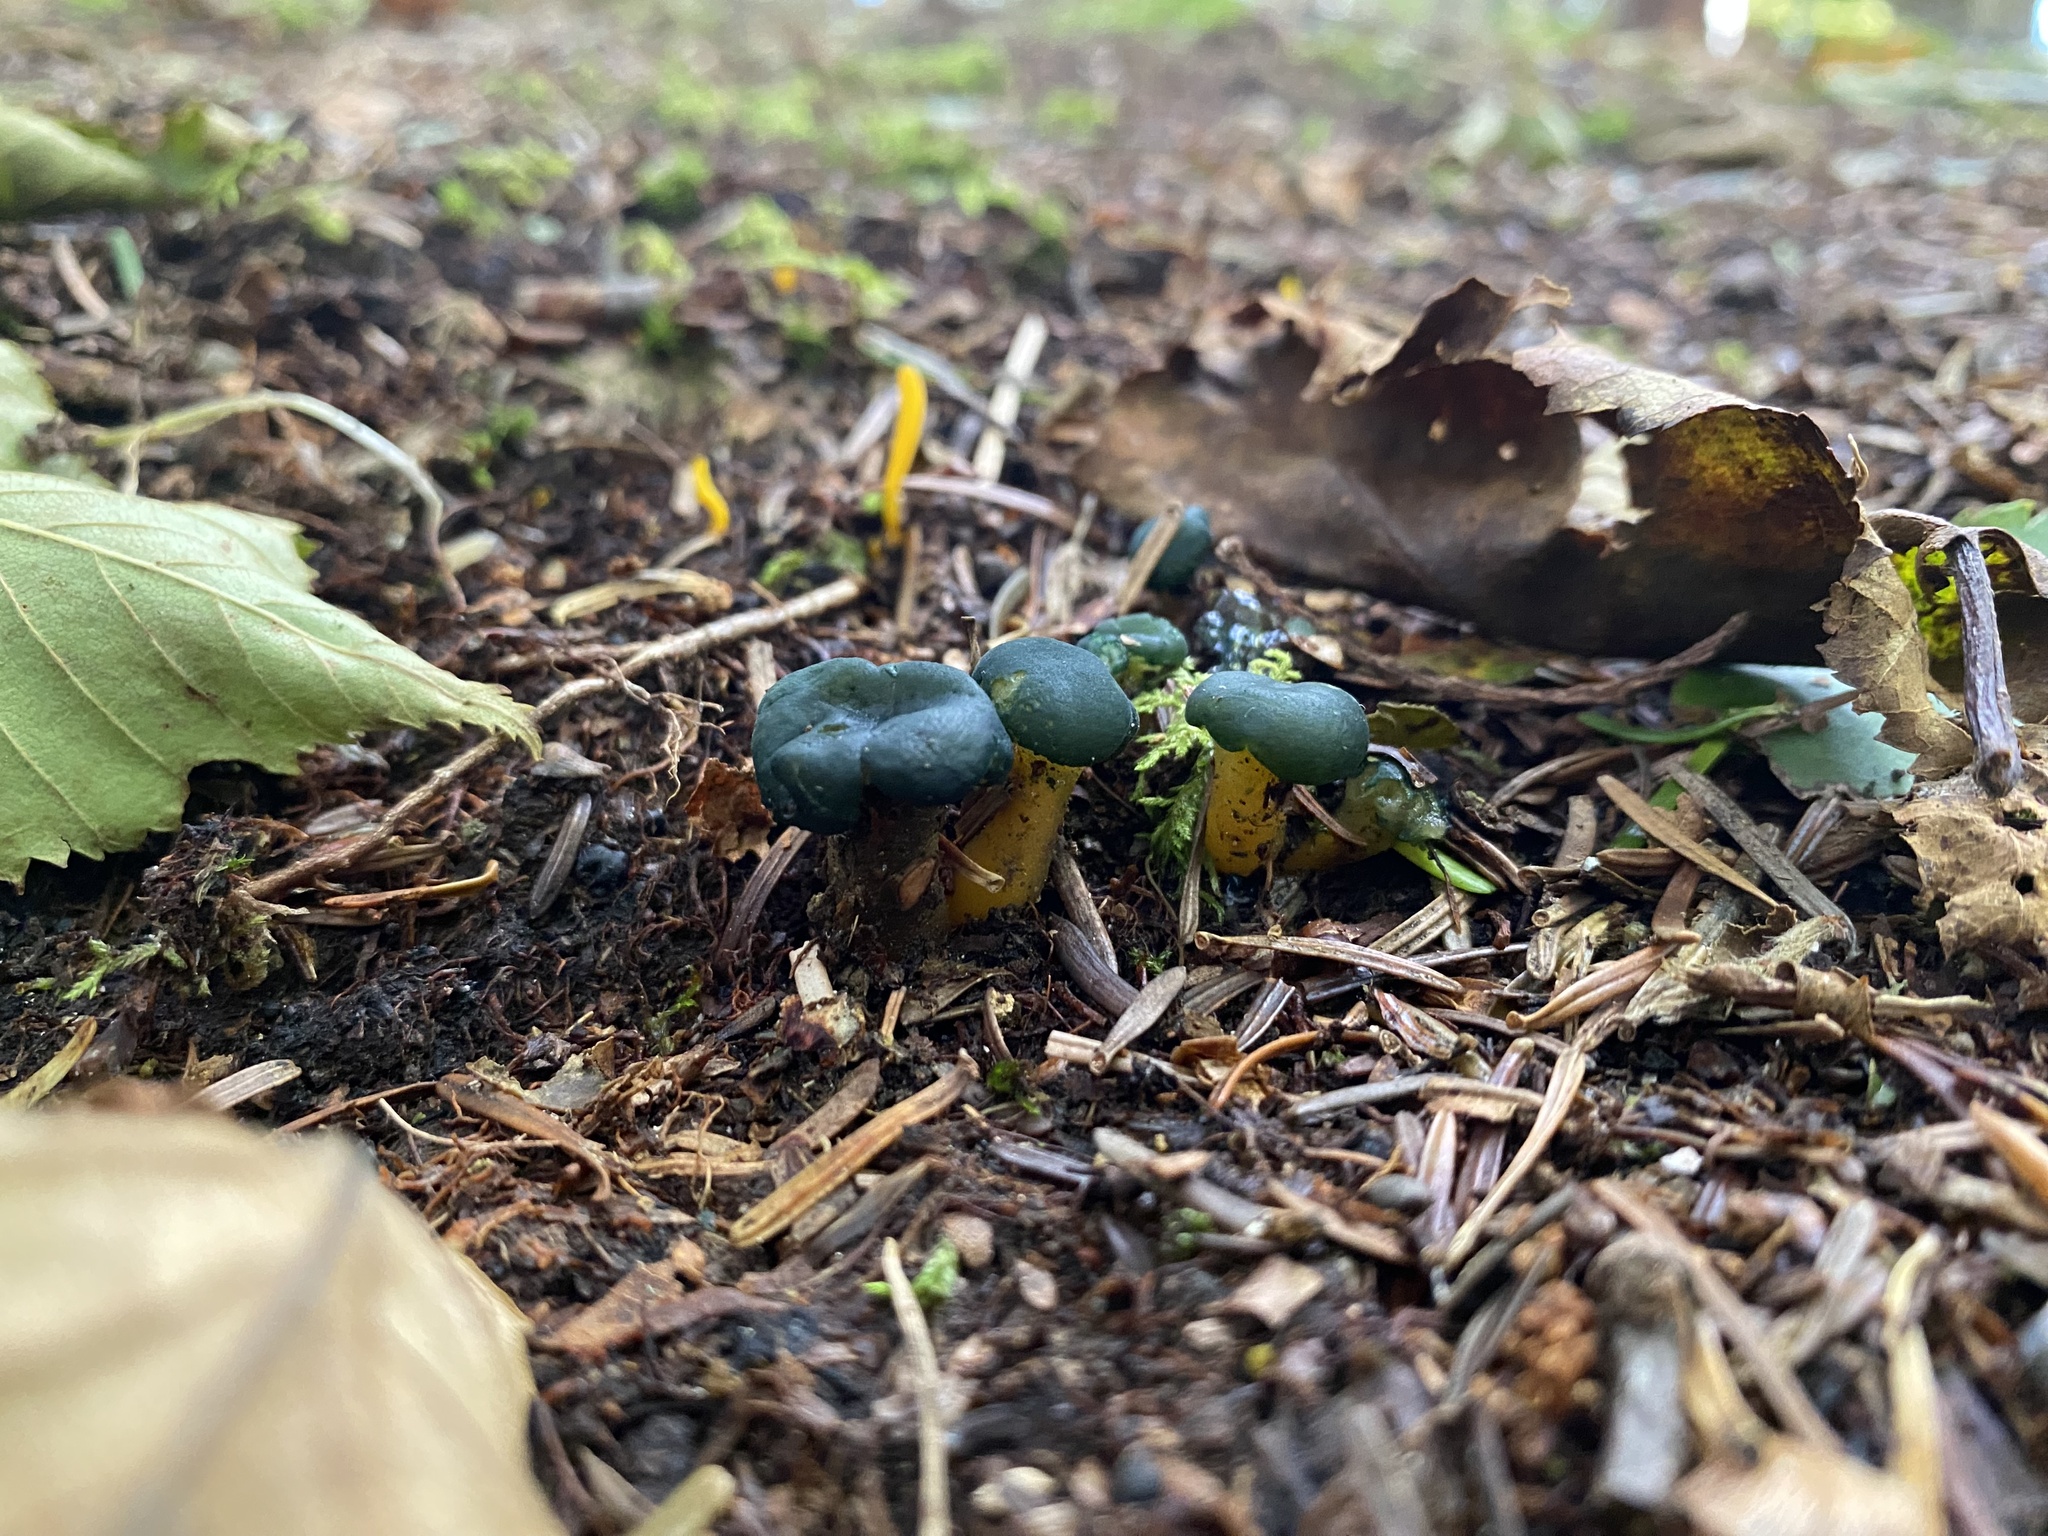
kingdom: Fungi
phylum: Ascomycota
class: Leotiomycetes
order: Leotiales
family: Leotiaceae
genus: Leotia
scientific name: Leotia lubrica
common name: Jellybaby
